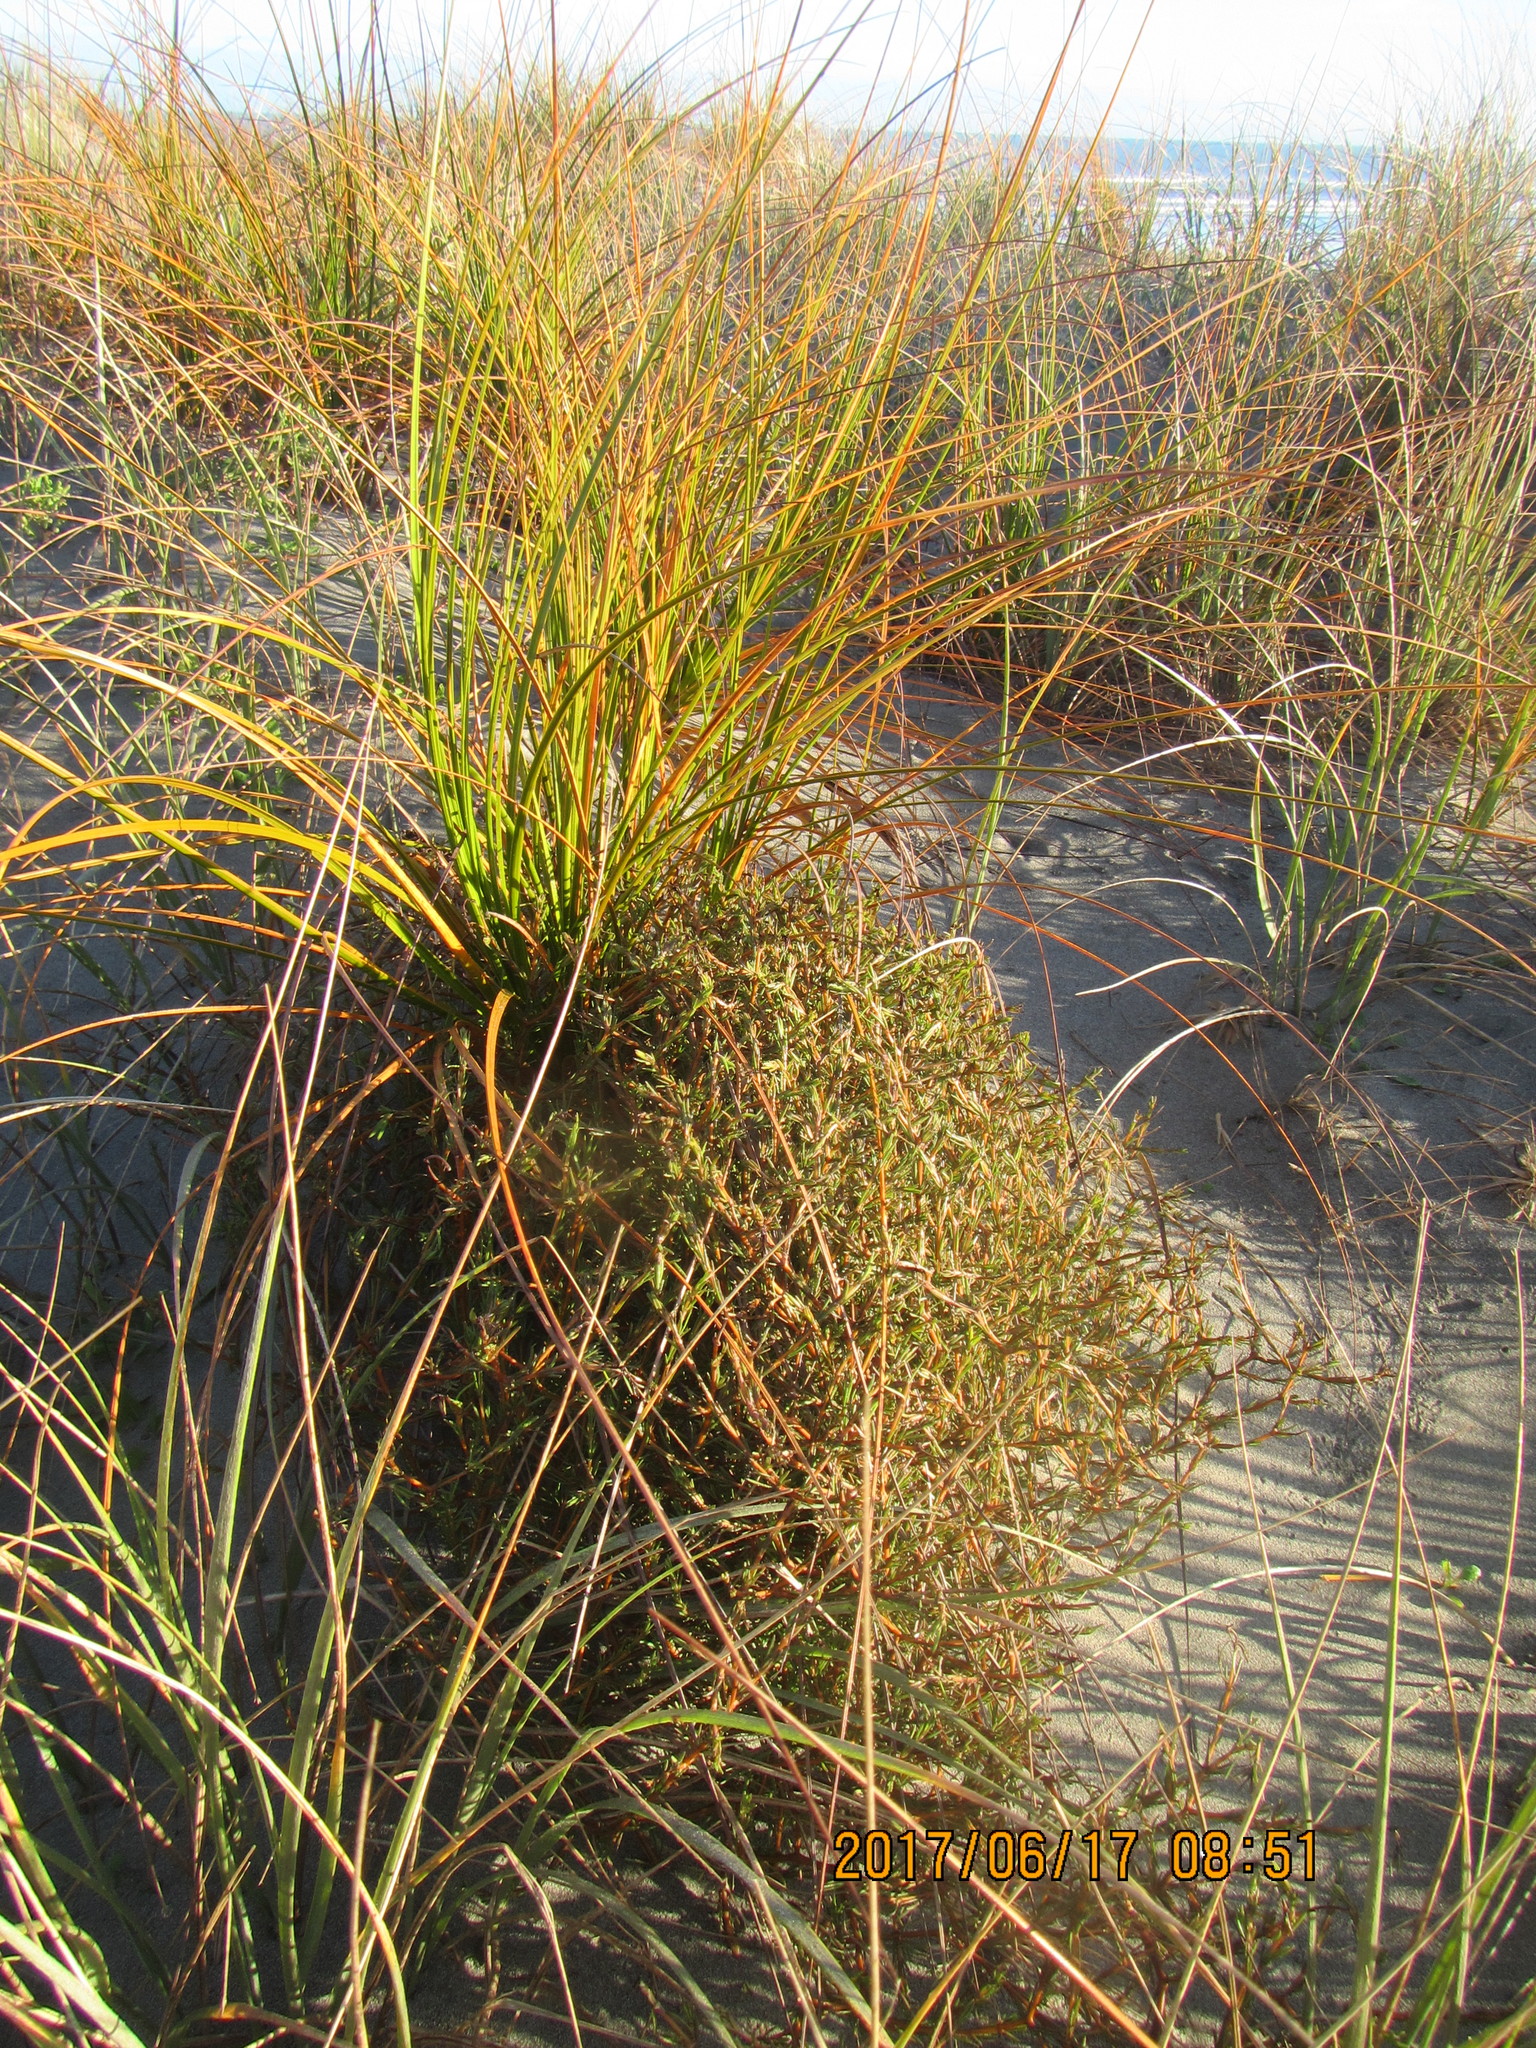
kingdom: Plantae
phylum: Tracheophyta
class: Liliopsida
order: Poales
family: Cyperaceae
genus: Ficinia
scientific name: Ficinia spiralis
